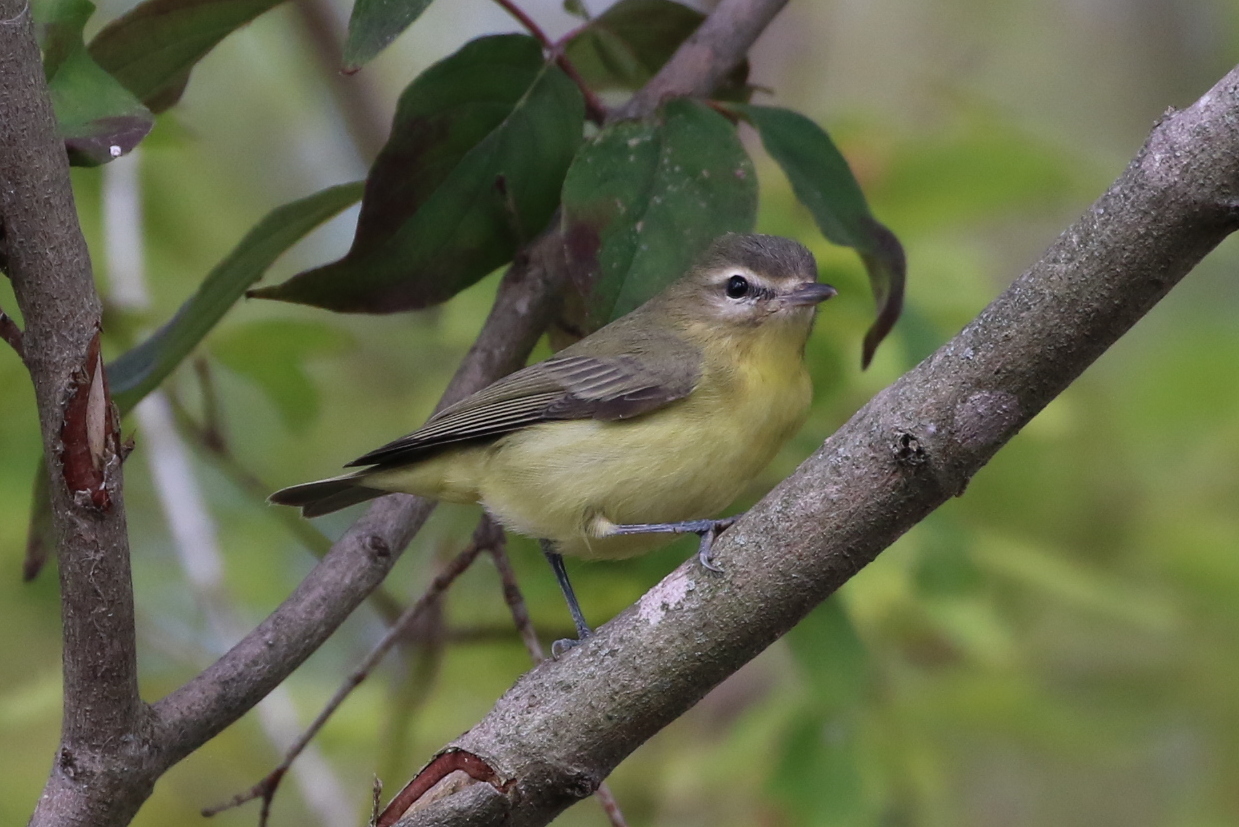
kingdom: Animalia
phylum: Chordata
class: Aves
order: Passeriformes
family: Vireonidae
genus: Vireo
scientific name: Vireo philadelphicus
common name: Philadelphia vireo
